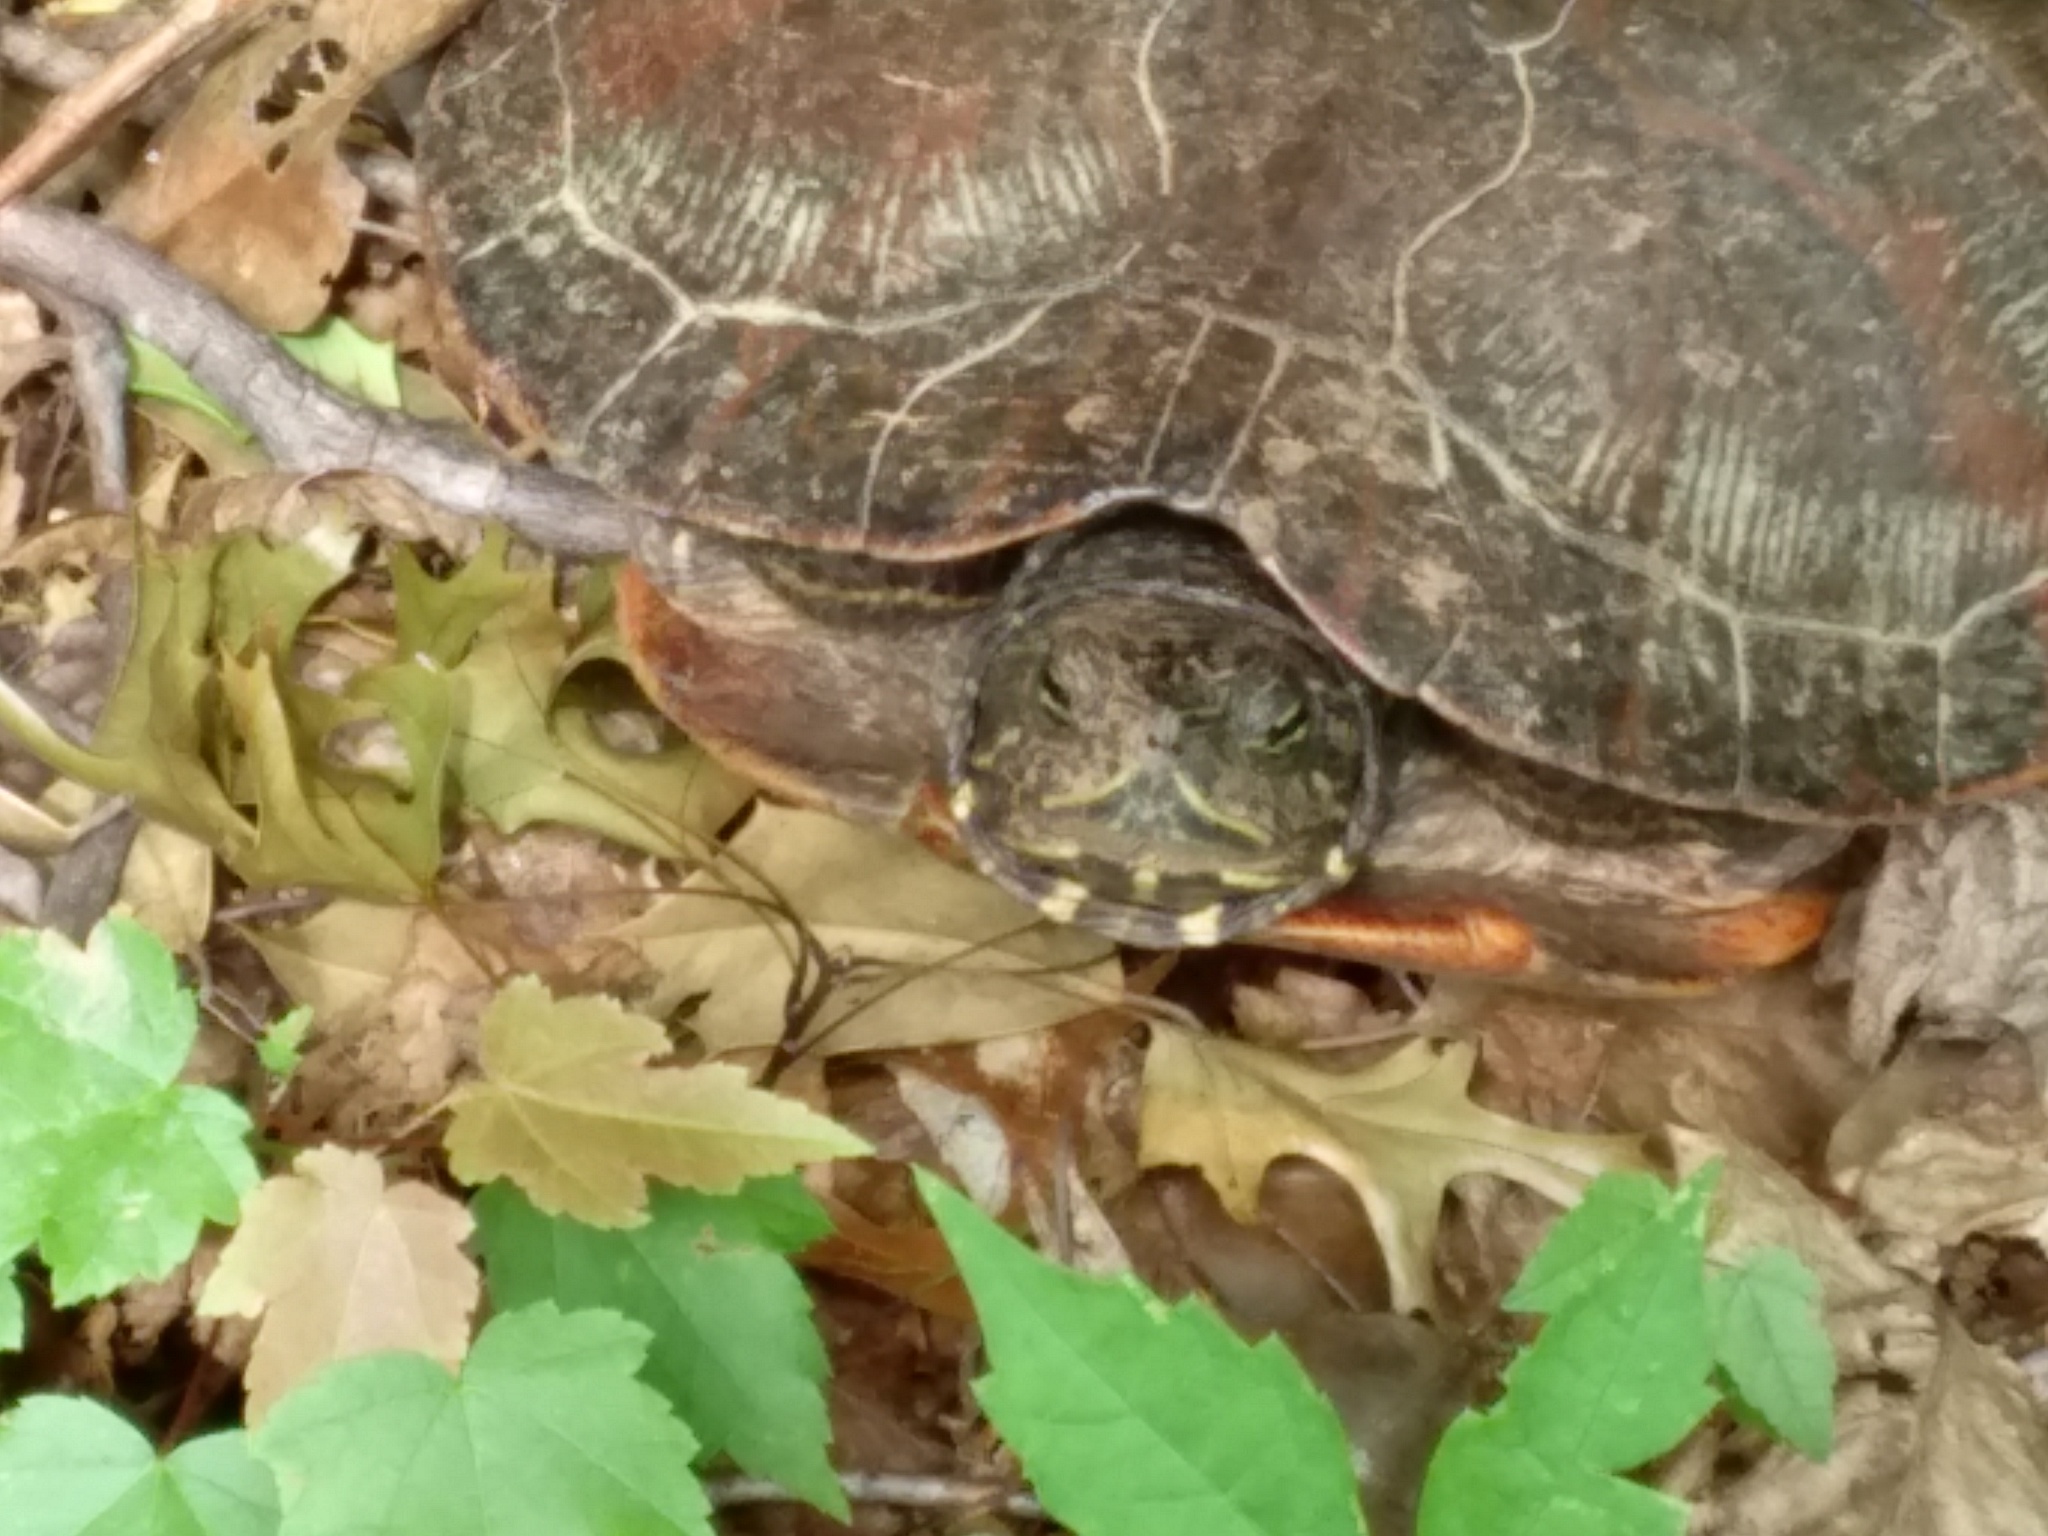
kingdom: Animalia
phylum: Chordata
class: Testudines
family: Emydidae
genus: Pseudemys
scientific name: Pseudemys rubriventris
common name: American red-bellied turtle
